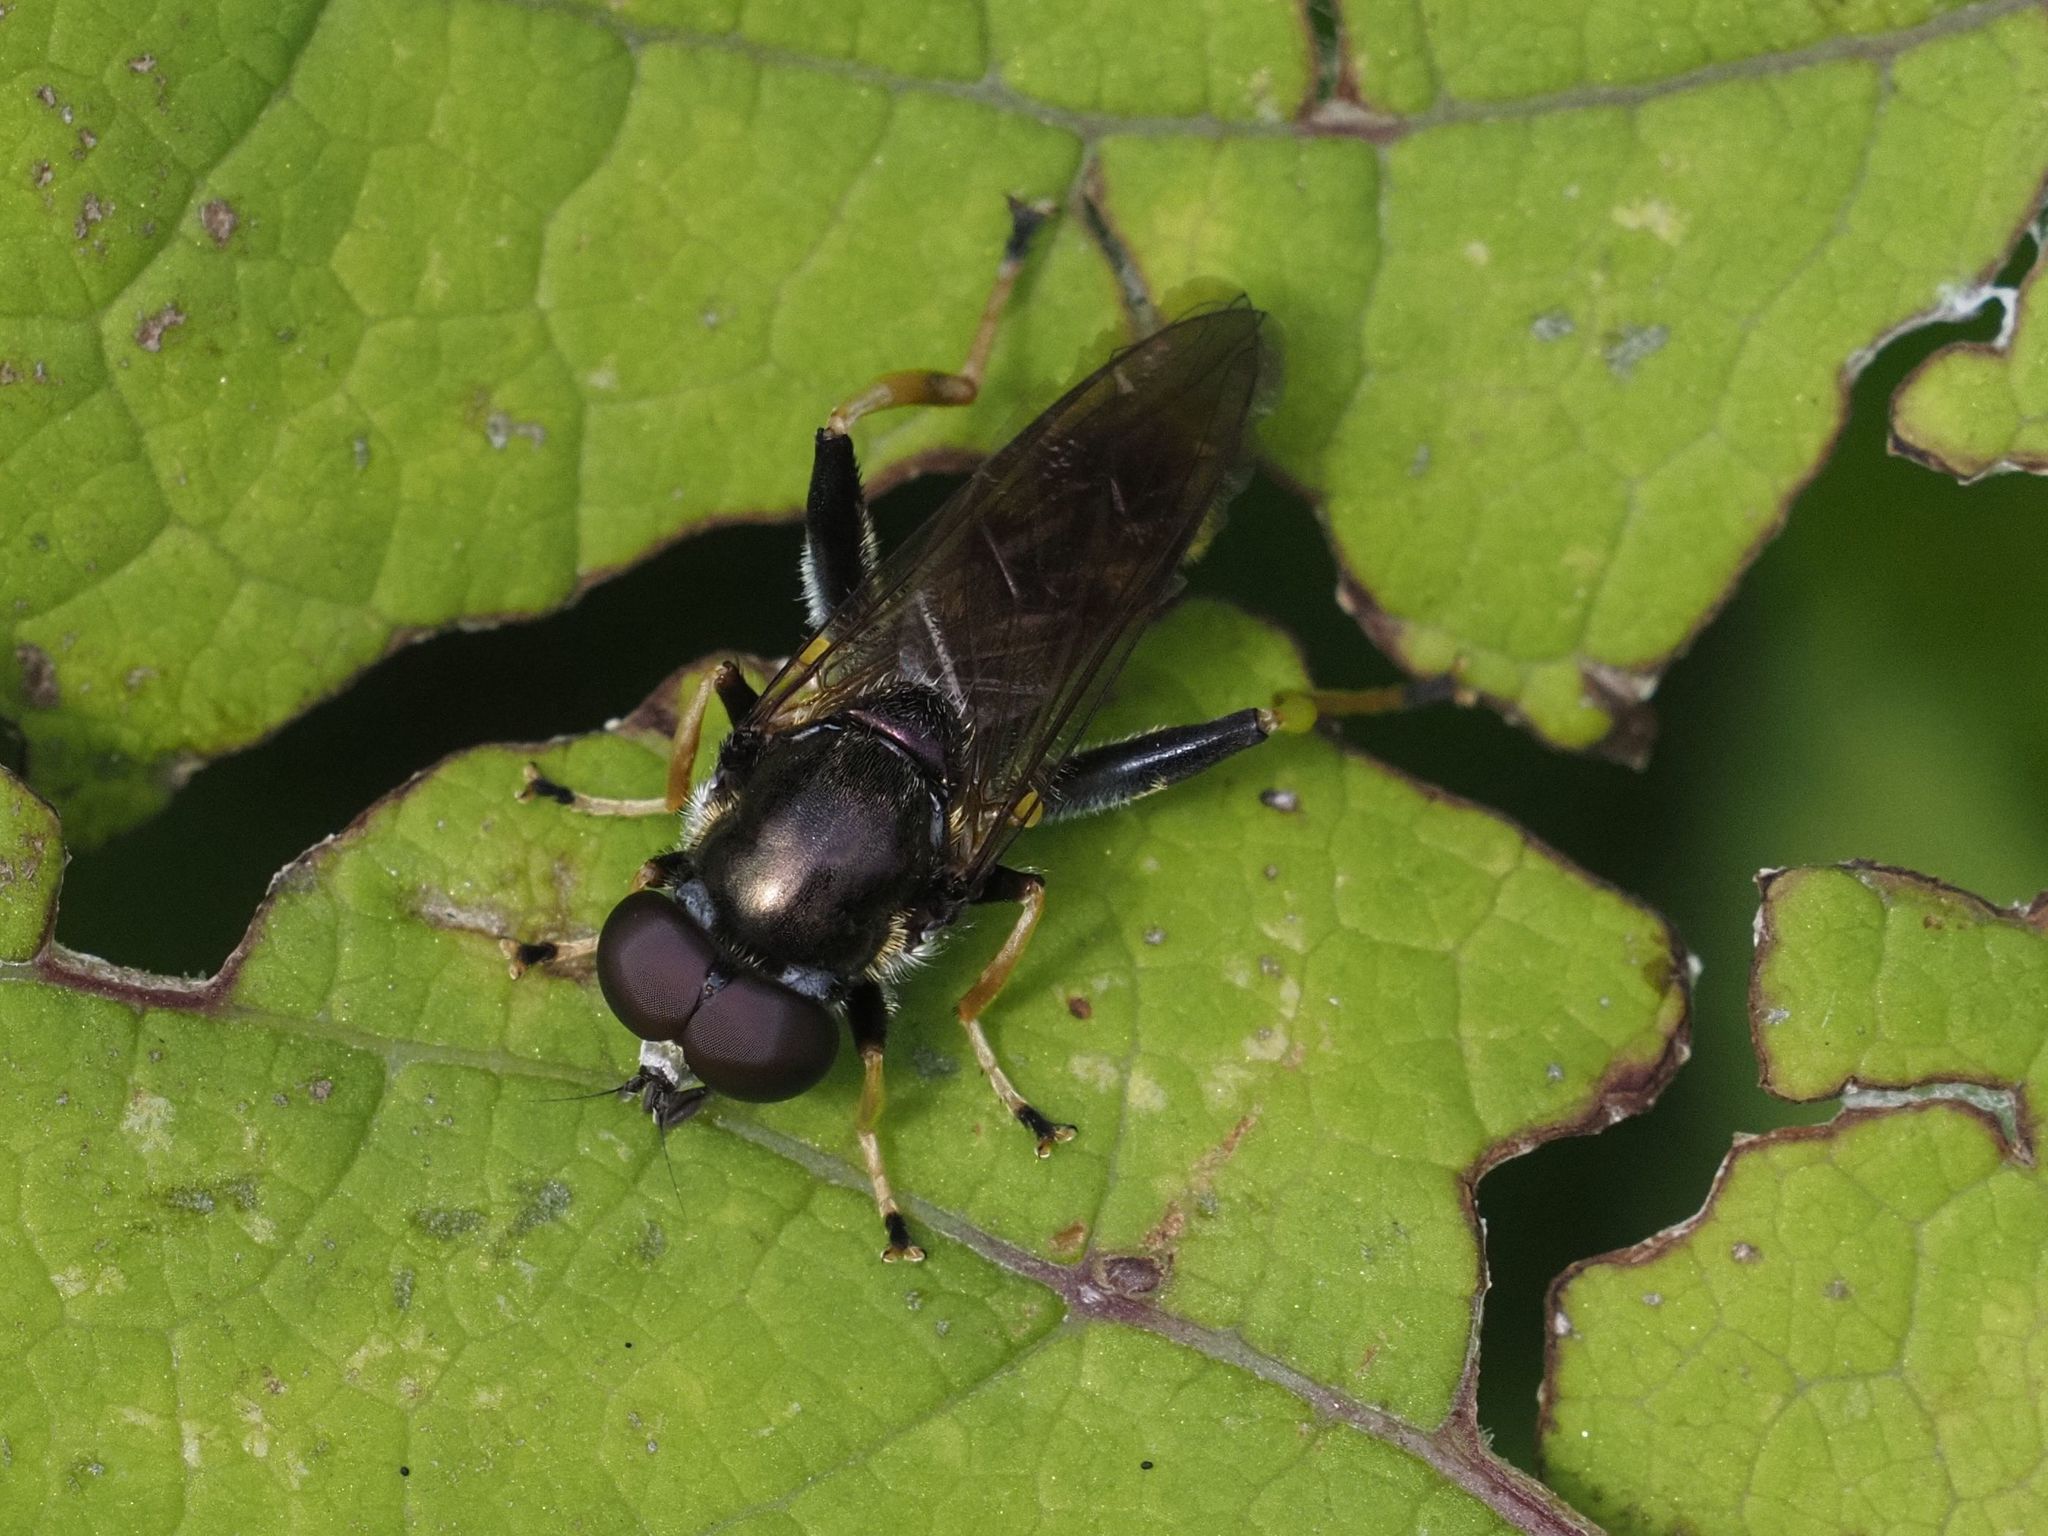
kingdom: Animalia
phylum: Arthropoda
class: Insecta
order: Diptera
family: Syrphidae
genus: Xylota
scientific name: Xylota sylvarum
